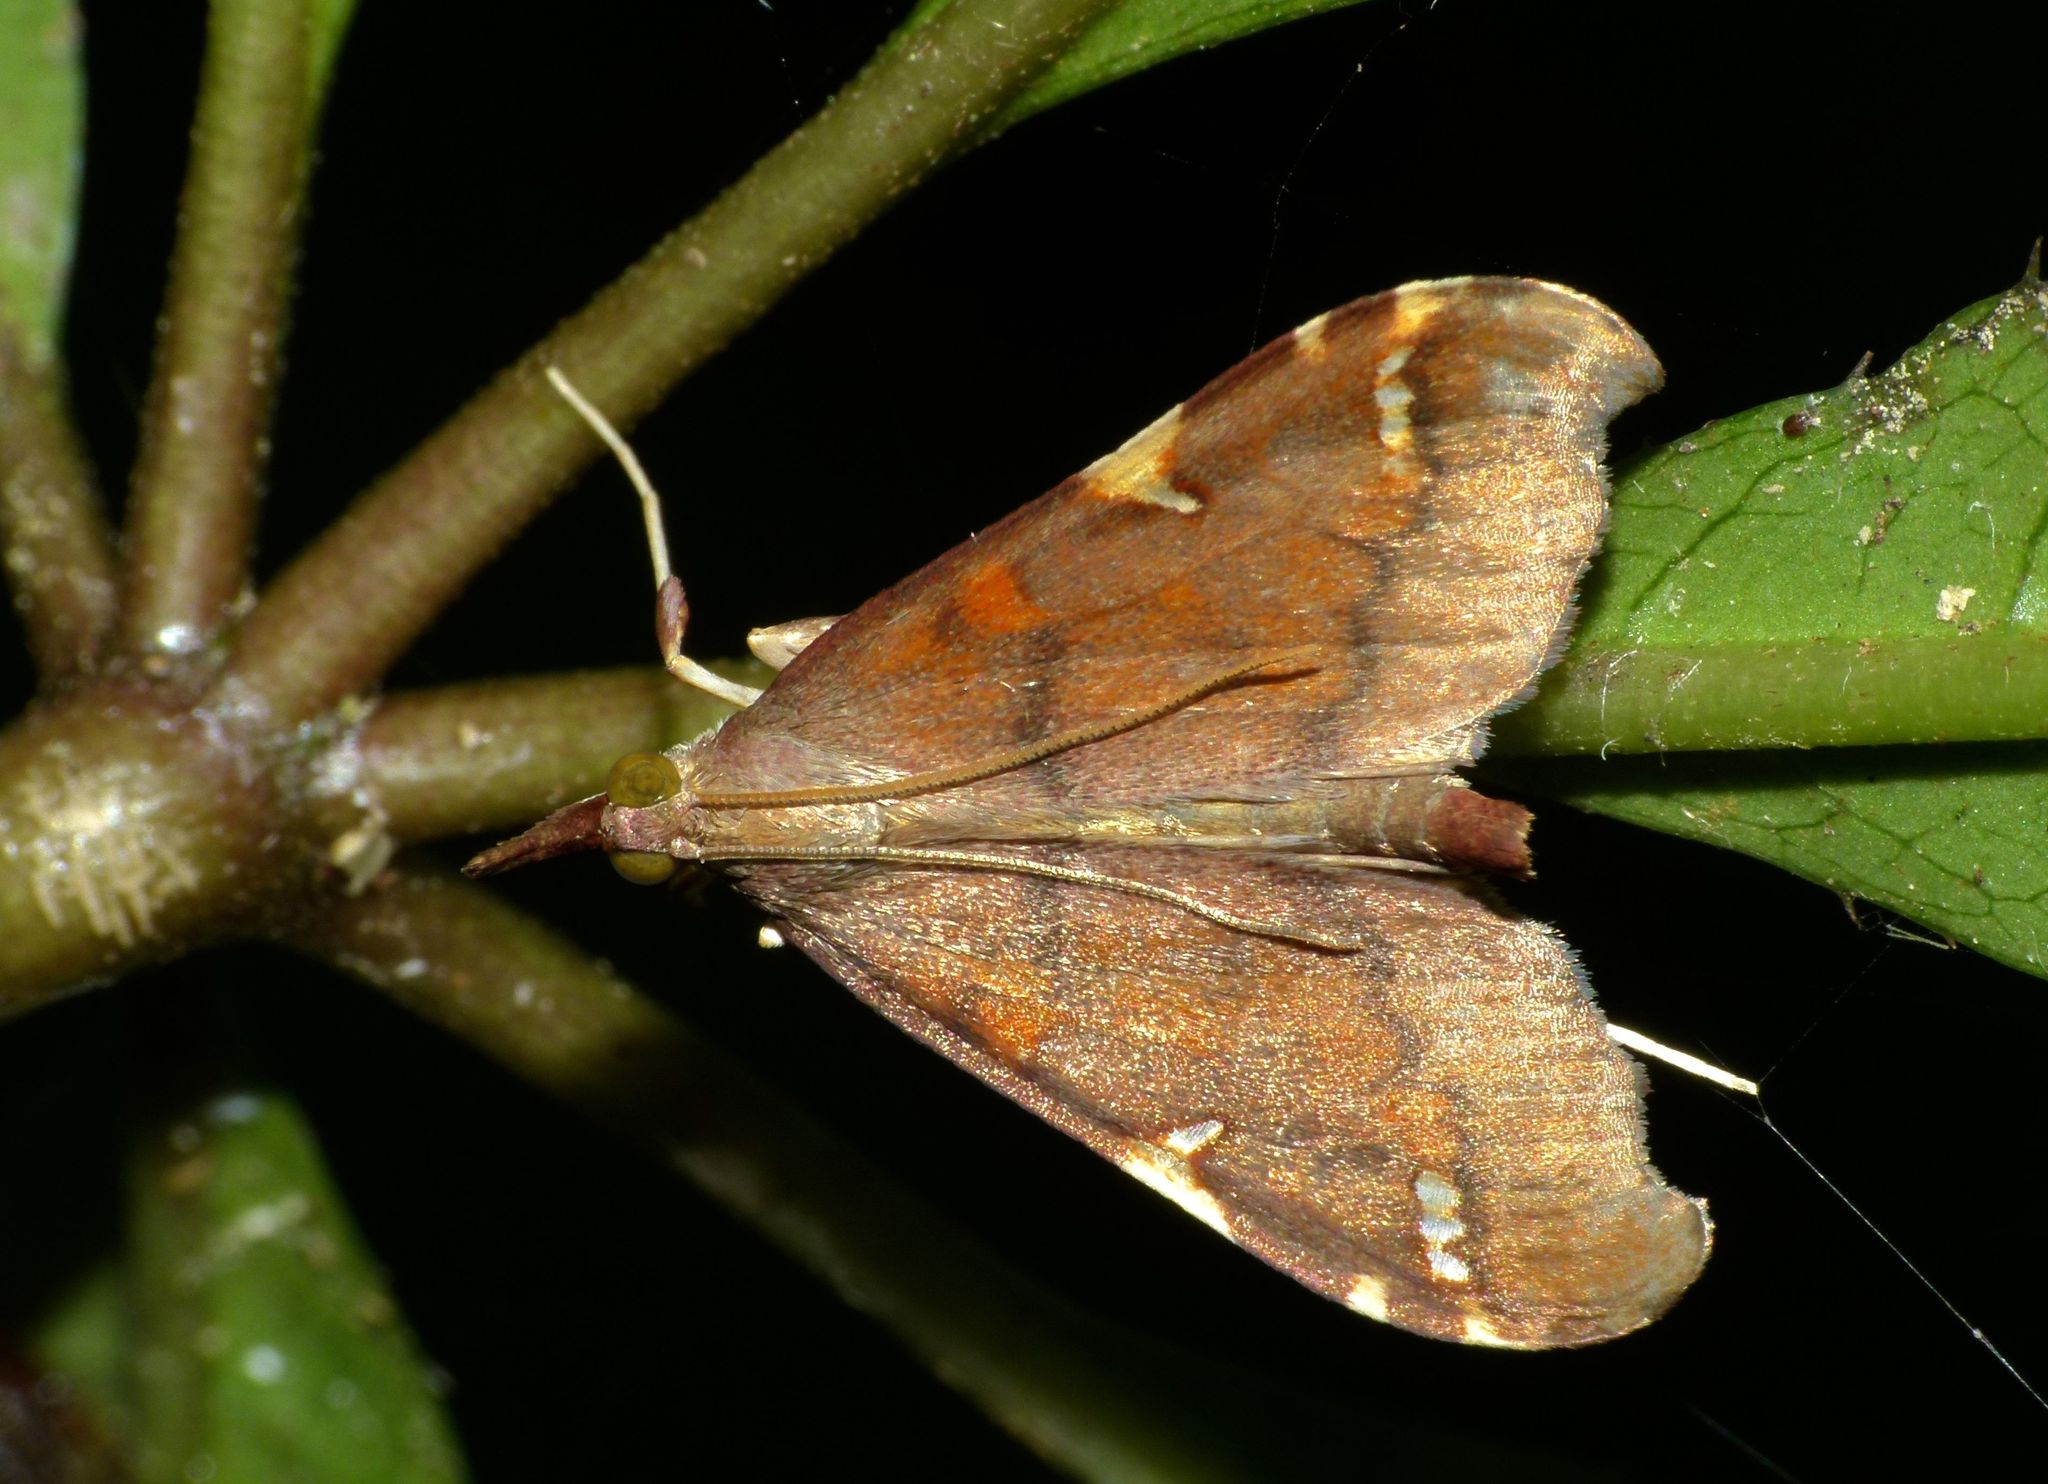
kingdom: Animalia
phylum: Arthropoda
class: Insecta
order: Lepidoptera
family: Crambidae
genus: Deana
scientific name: Deana hybreasalis
